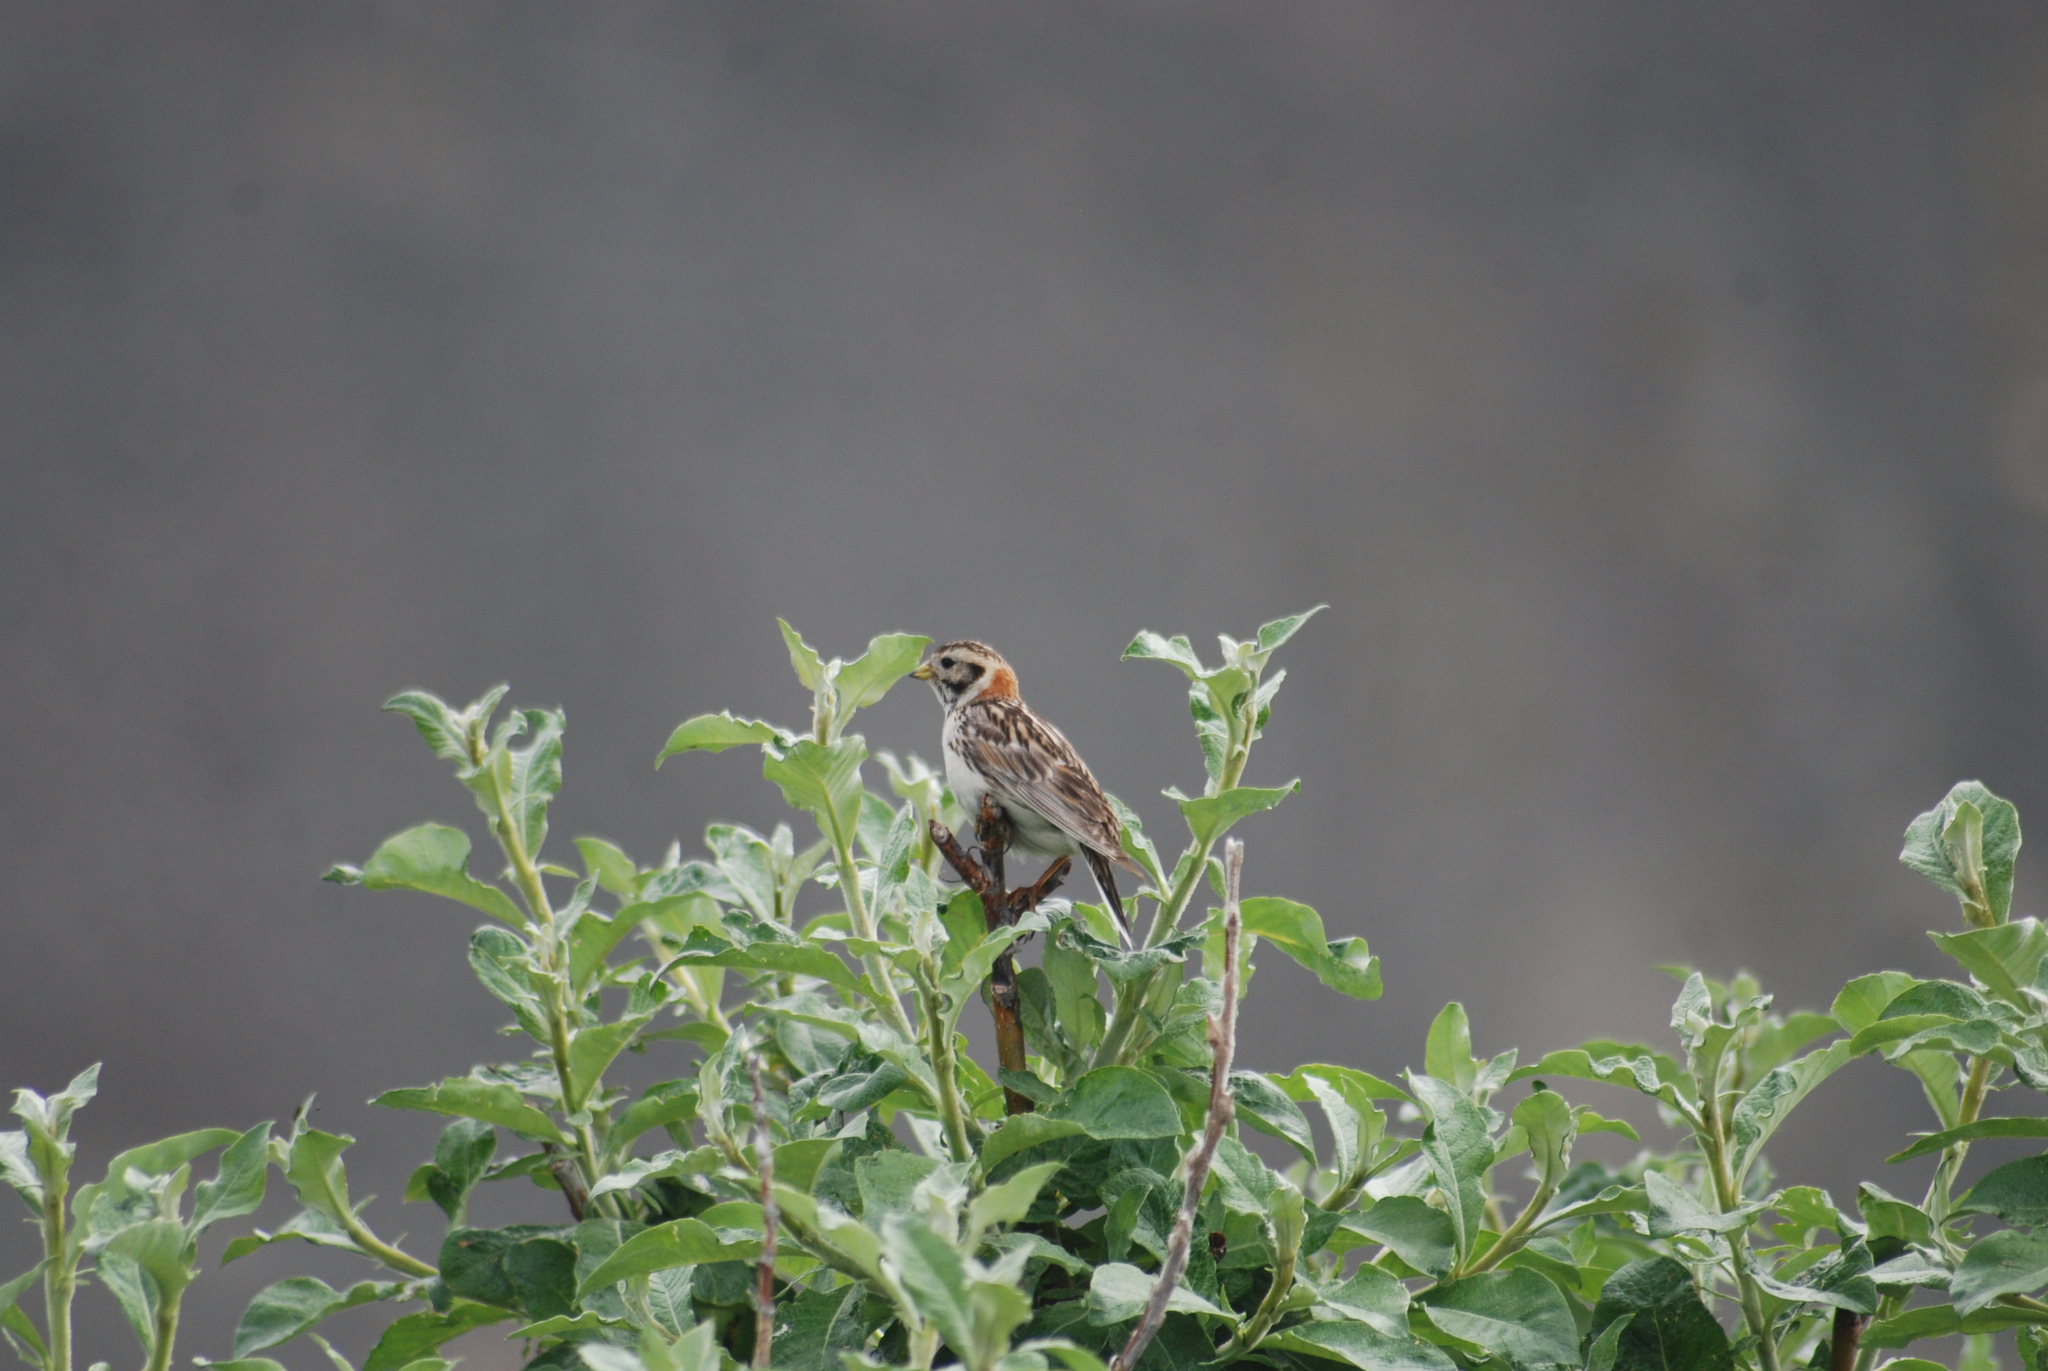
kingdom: Animalia
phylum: Chordata
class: Aves
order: Passeriformes
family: Calcariidae
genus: Calcarius
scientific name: Calcarius lapponicus
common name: Lapland longspur
